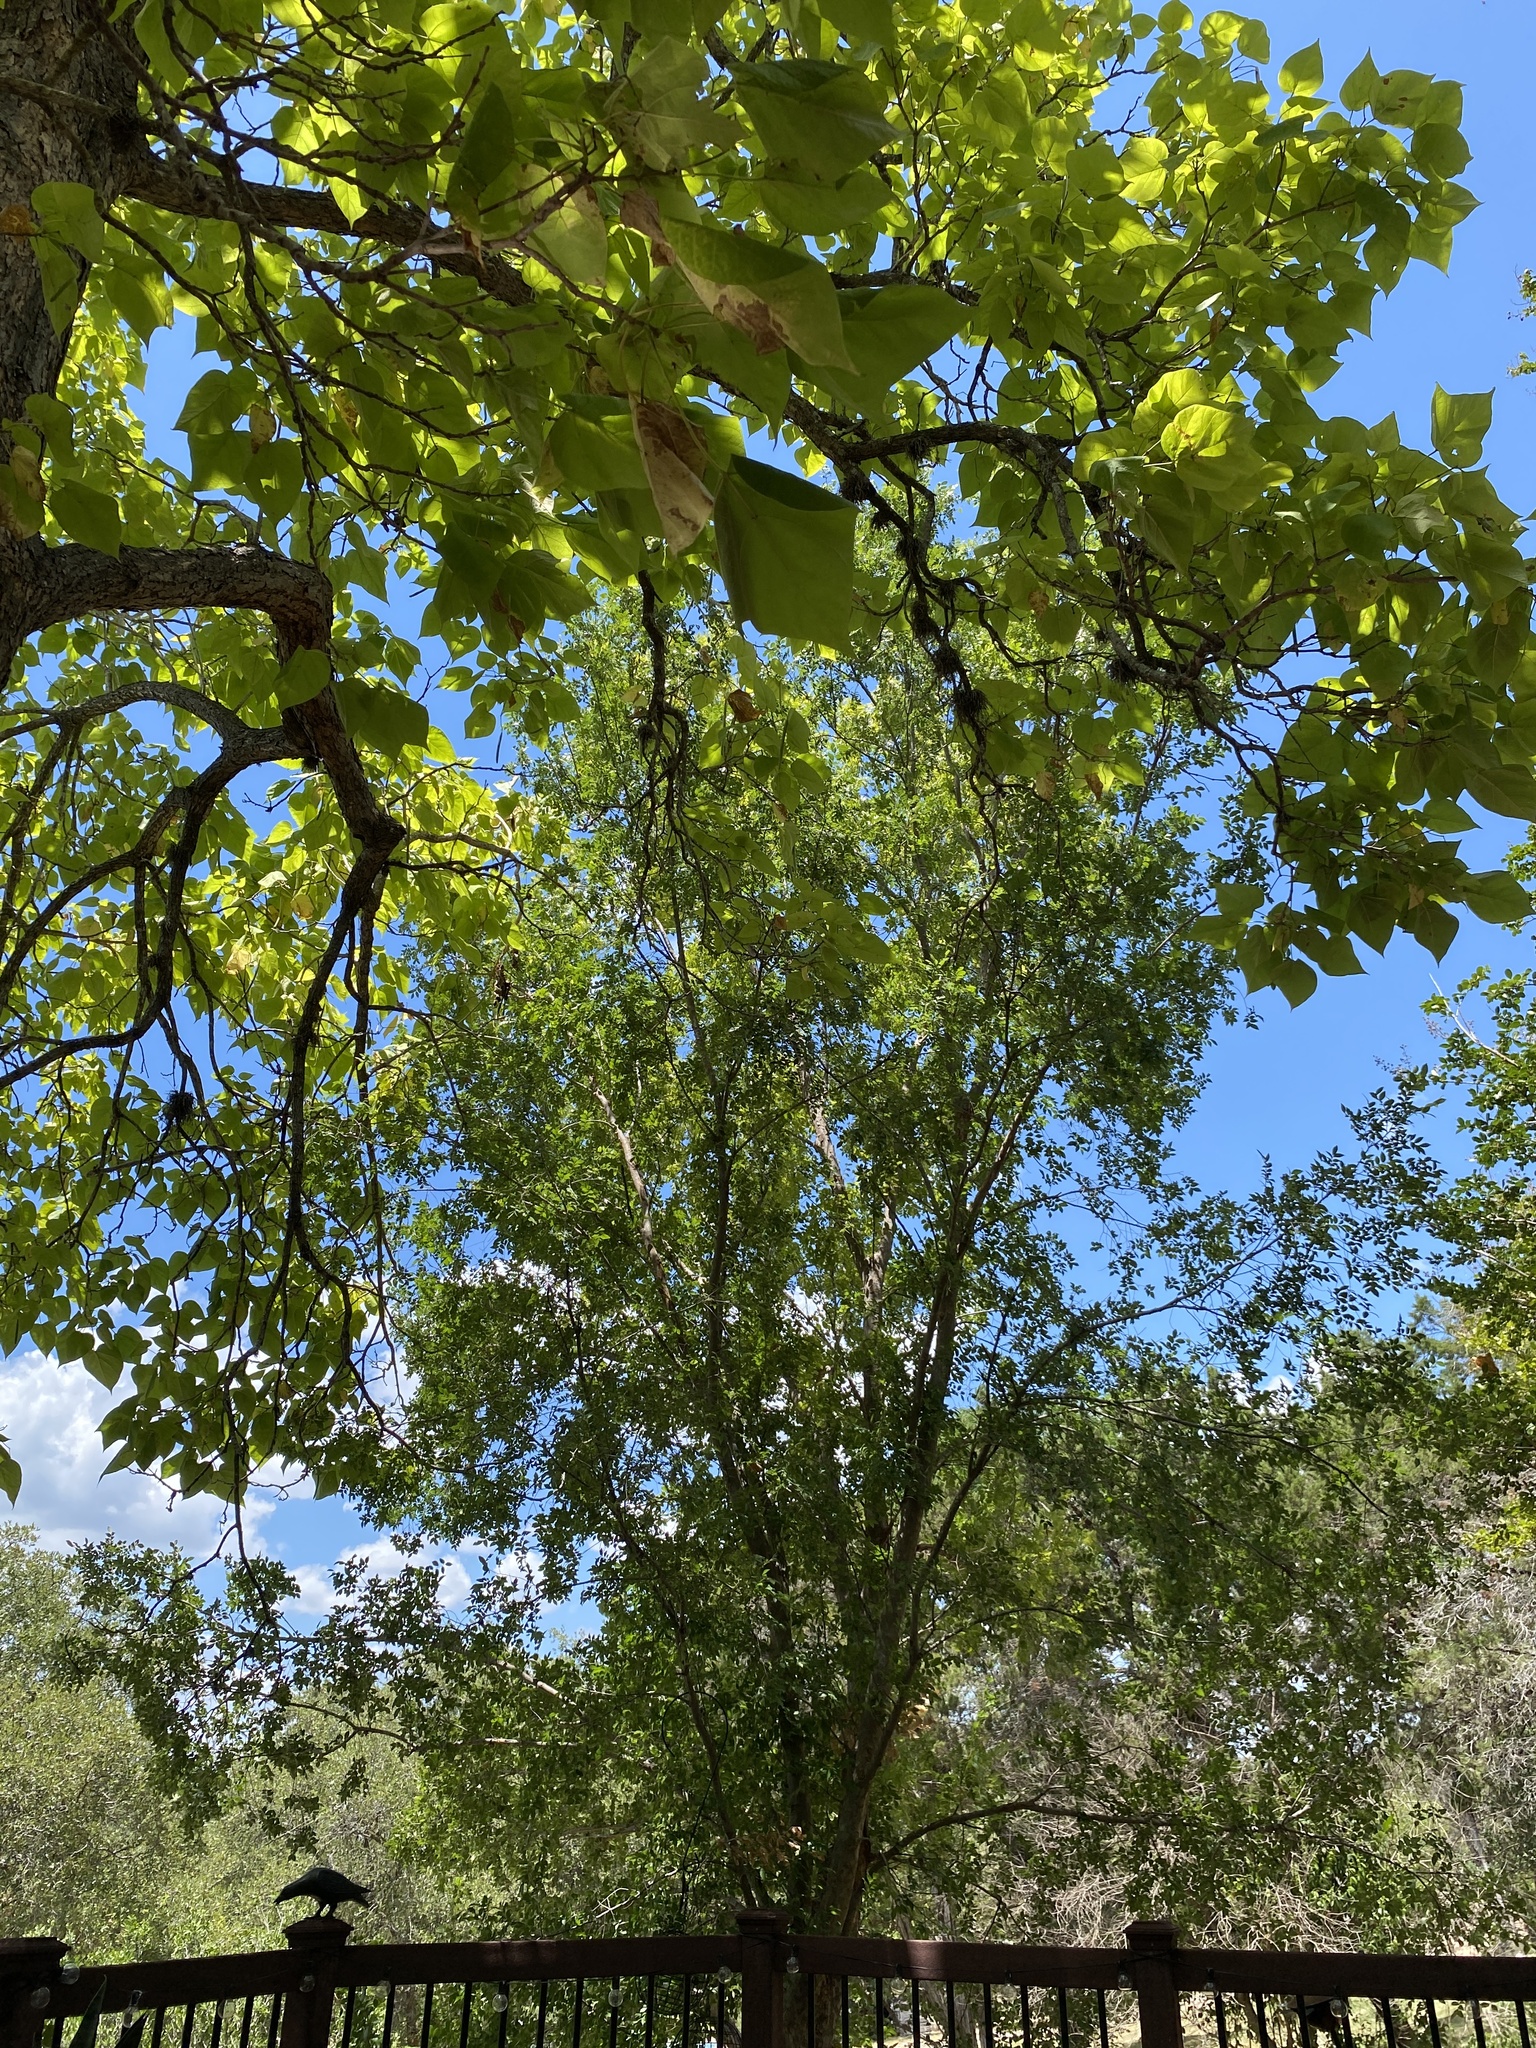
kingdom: Animalia
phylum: Chordata
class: Aves
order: Passeriformes
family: Polioptilidae
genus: Polioptila
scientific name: Polioptila caerulea
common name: Blue-gray gnatcatcher
